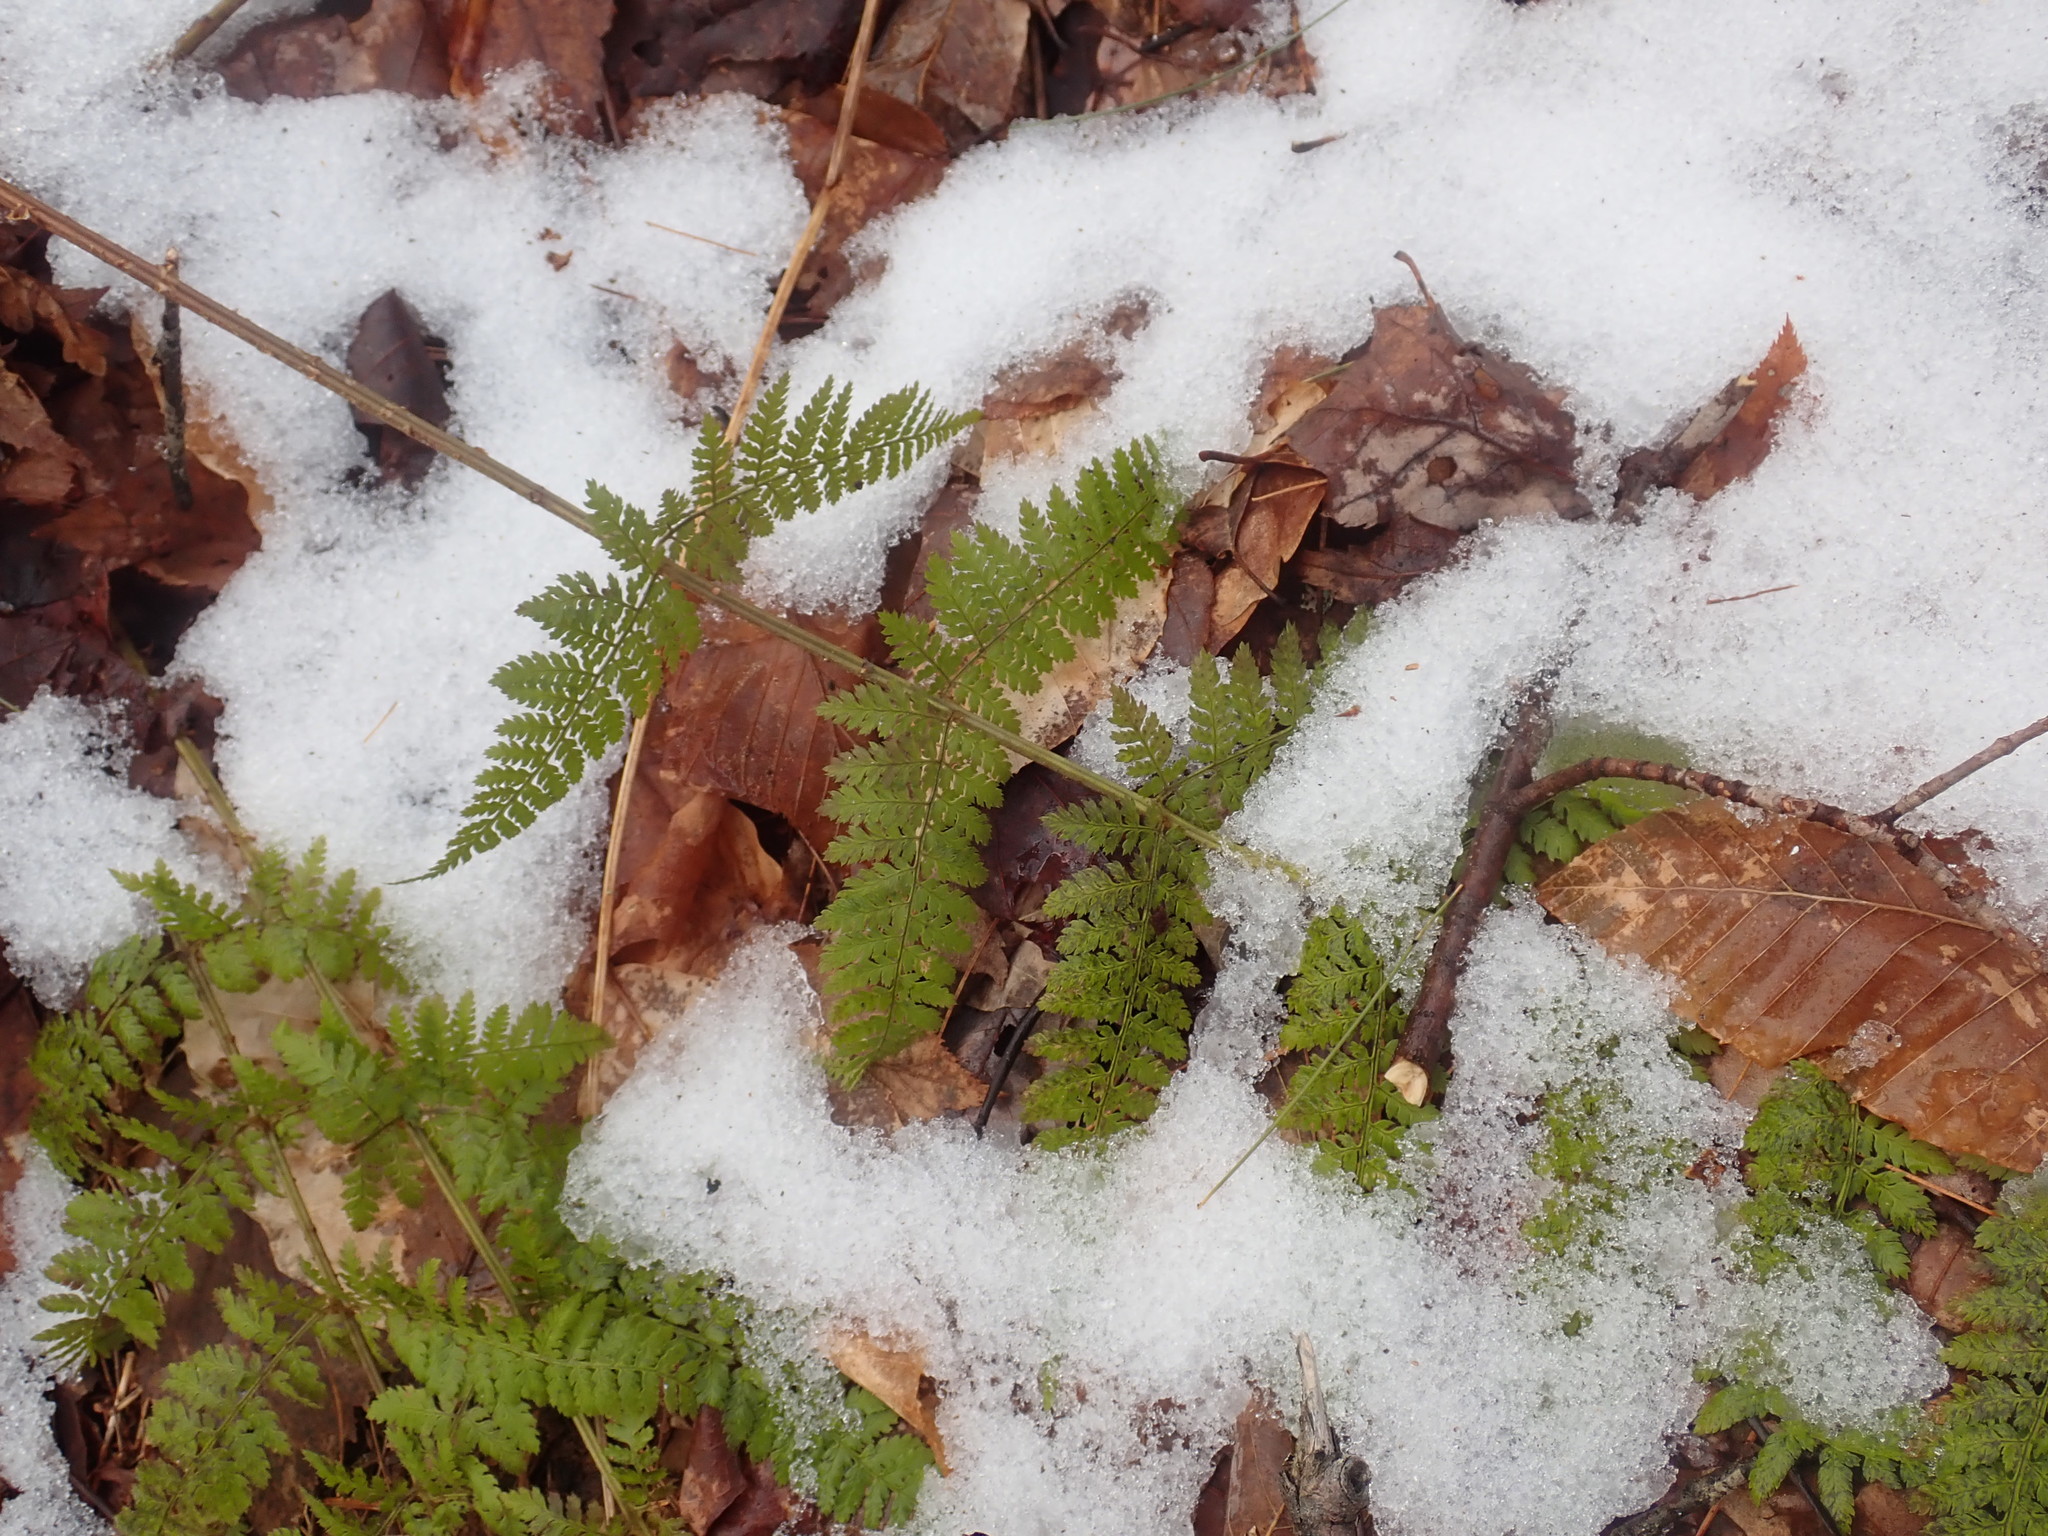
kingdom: Plantae
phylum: Tracheophyta
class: Polypodiopsida
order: Polypodiales
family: Dryopteridaceae
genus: Dryopteris
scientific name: Dryopteris intermedia
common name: Evergreen wood fern
